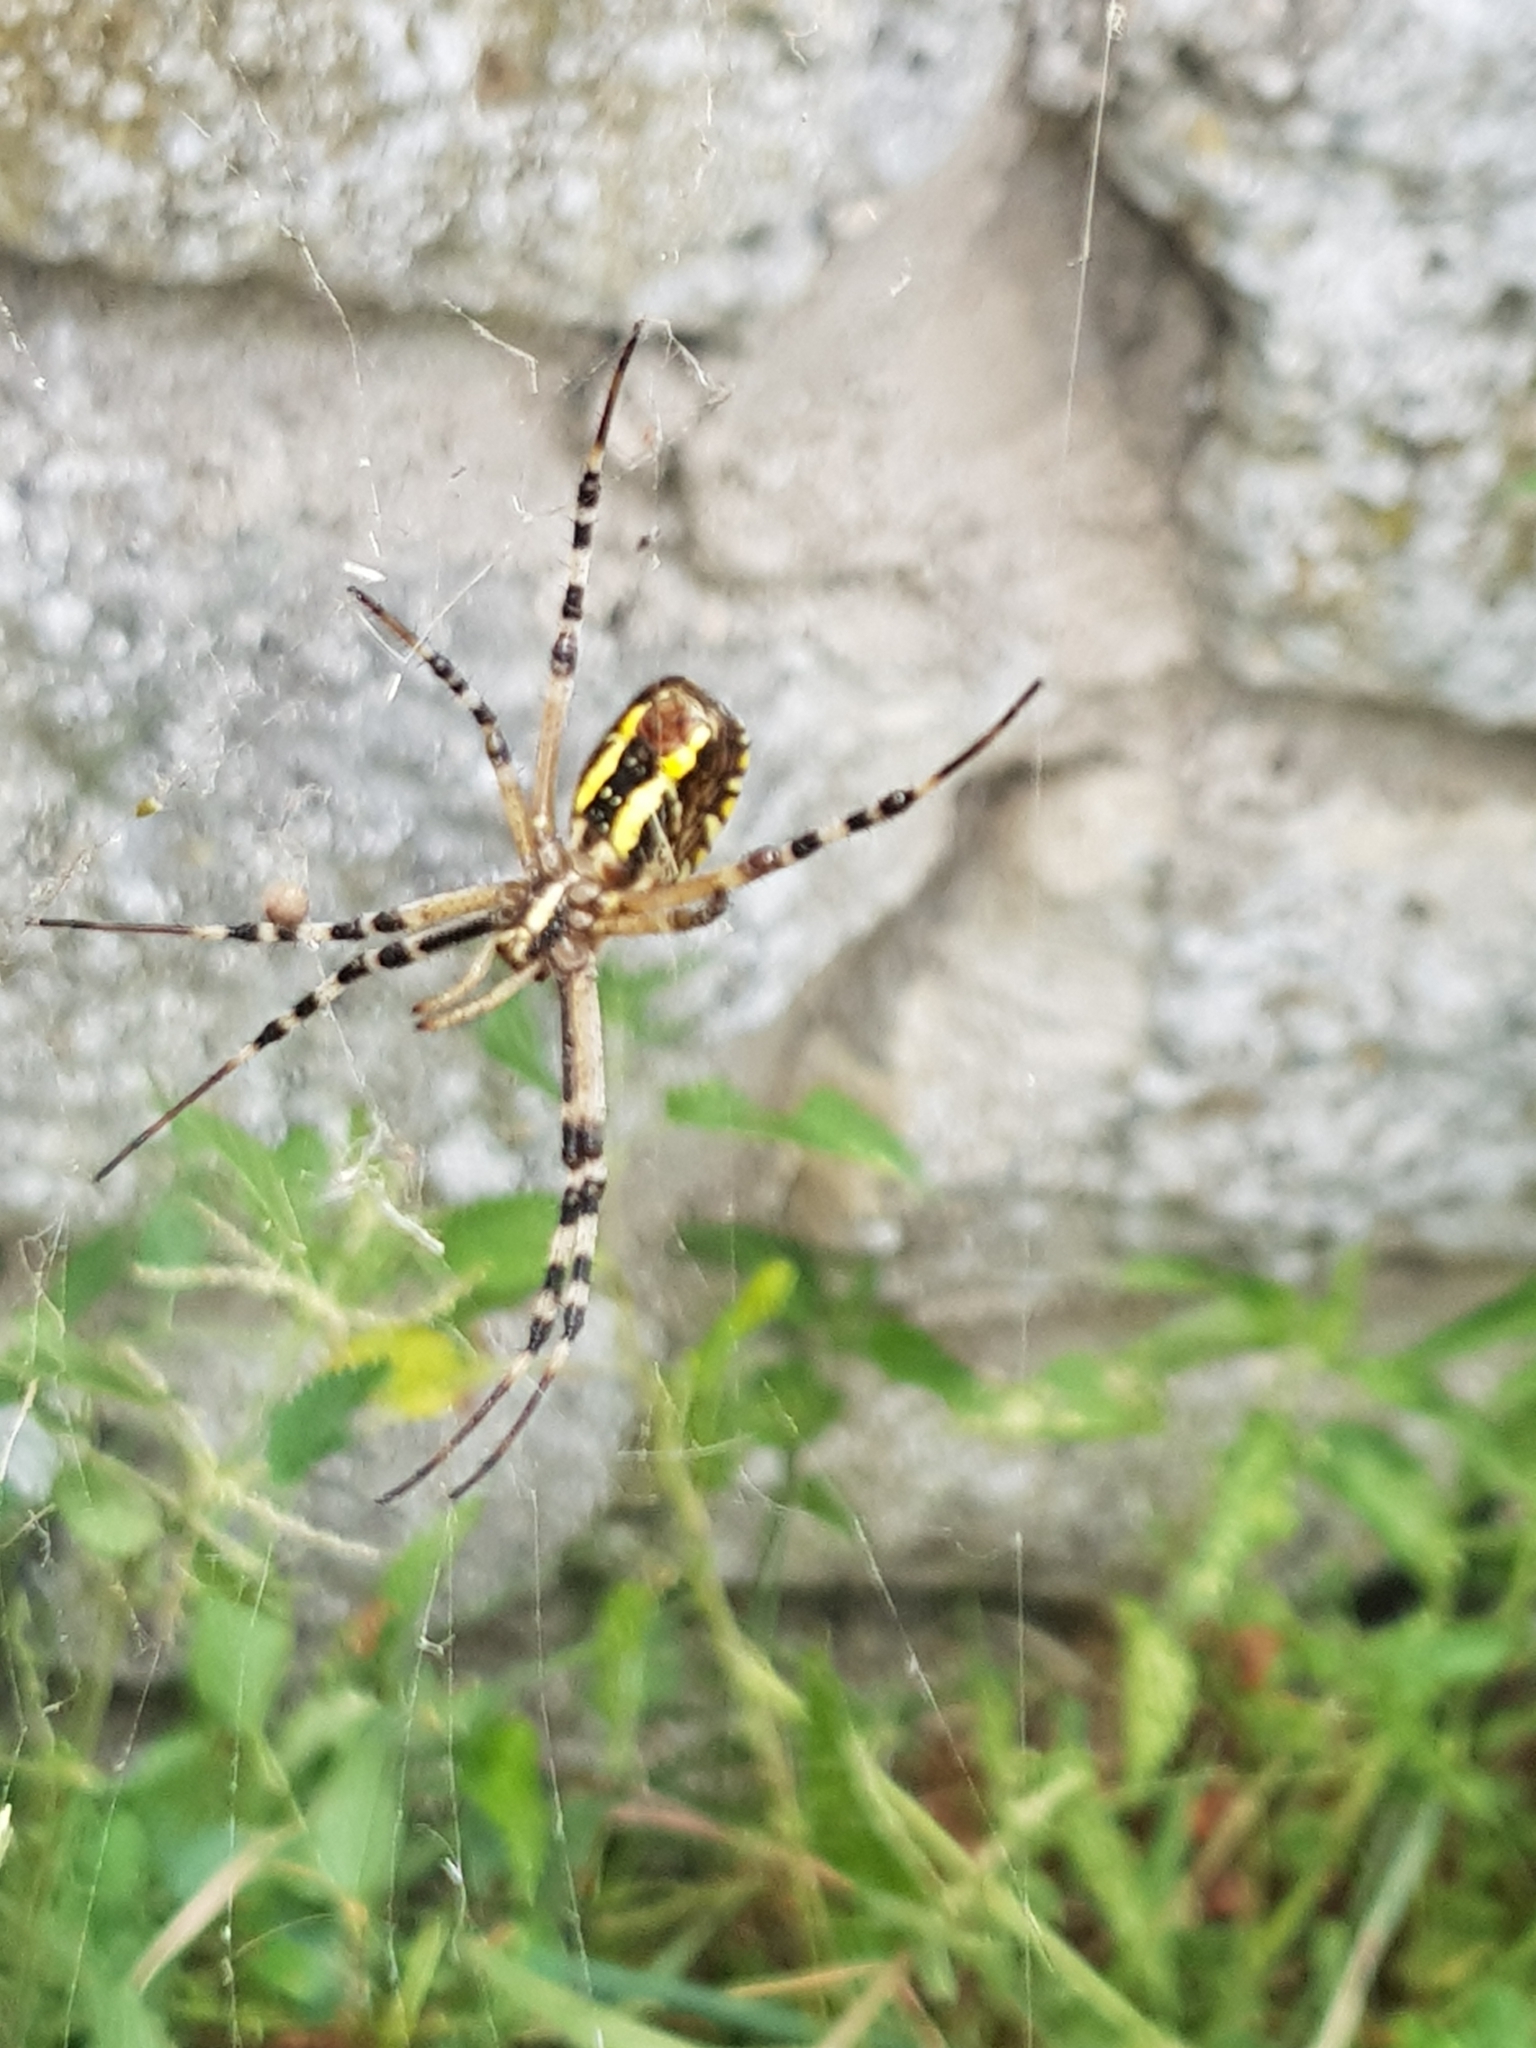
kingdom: Animalia
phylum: Arthropoda
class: Arachnida
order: Araneae
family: Araneidae
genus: Argiope
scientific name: Argiope bruennichi
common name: Wasp spider
